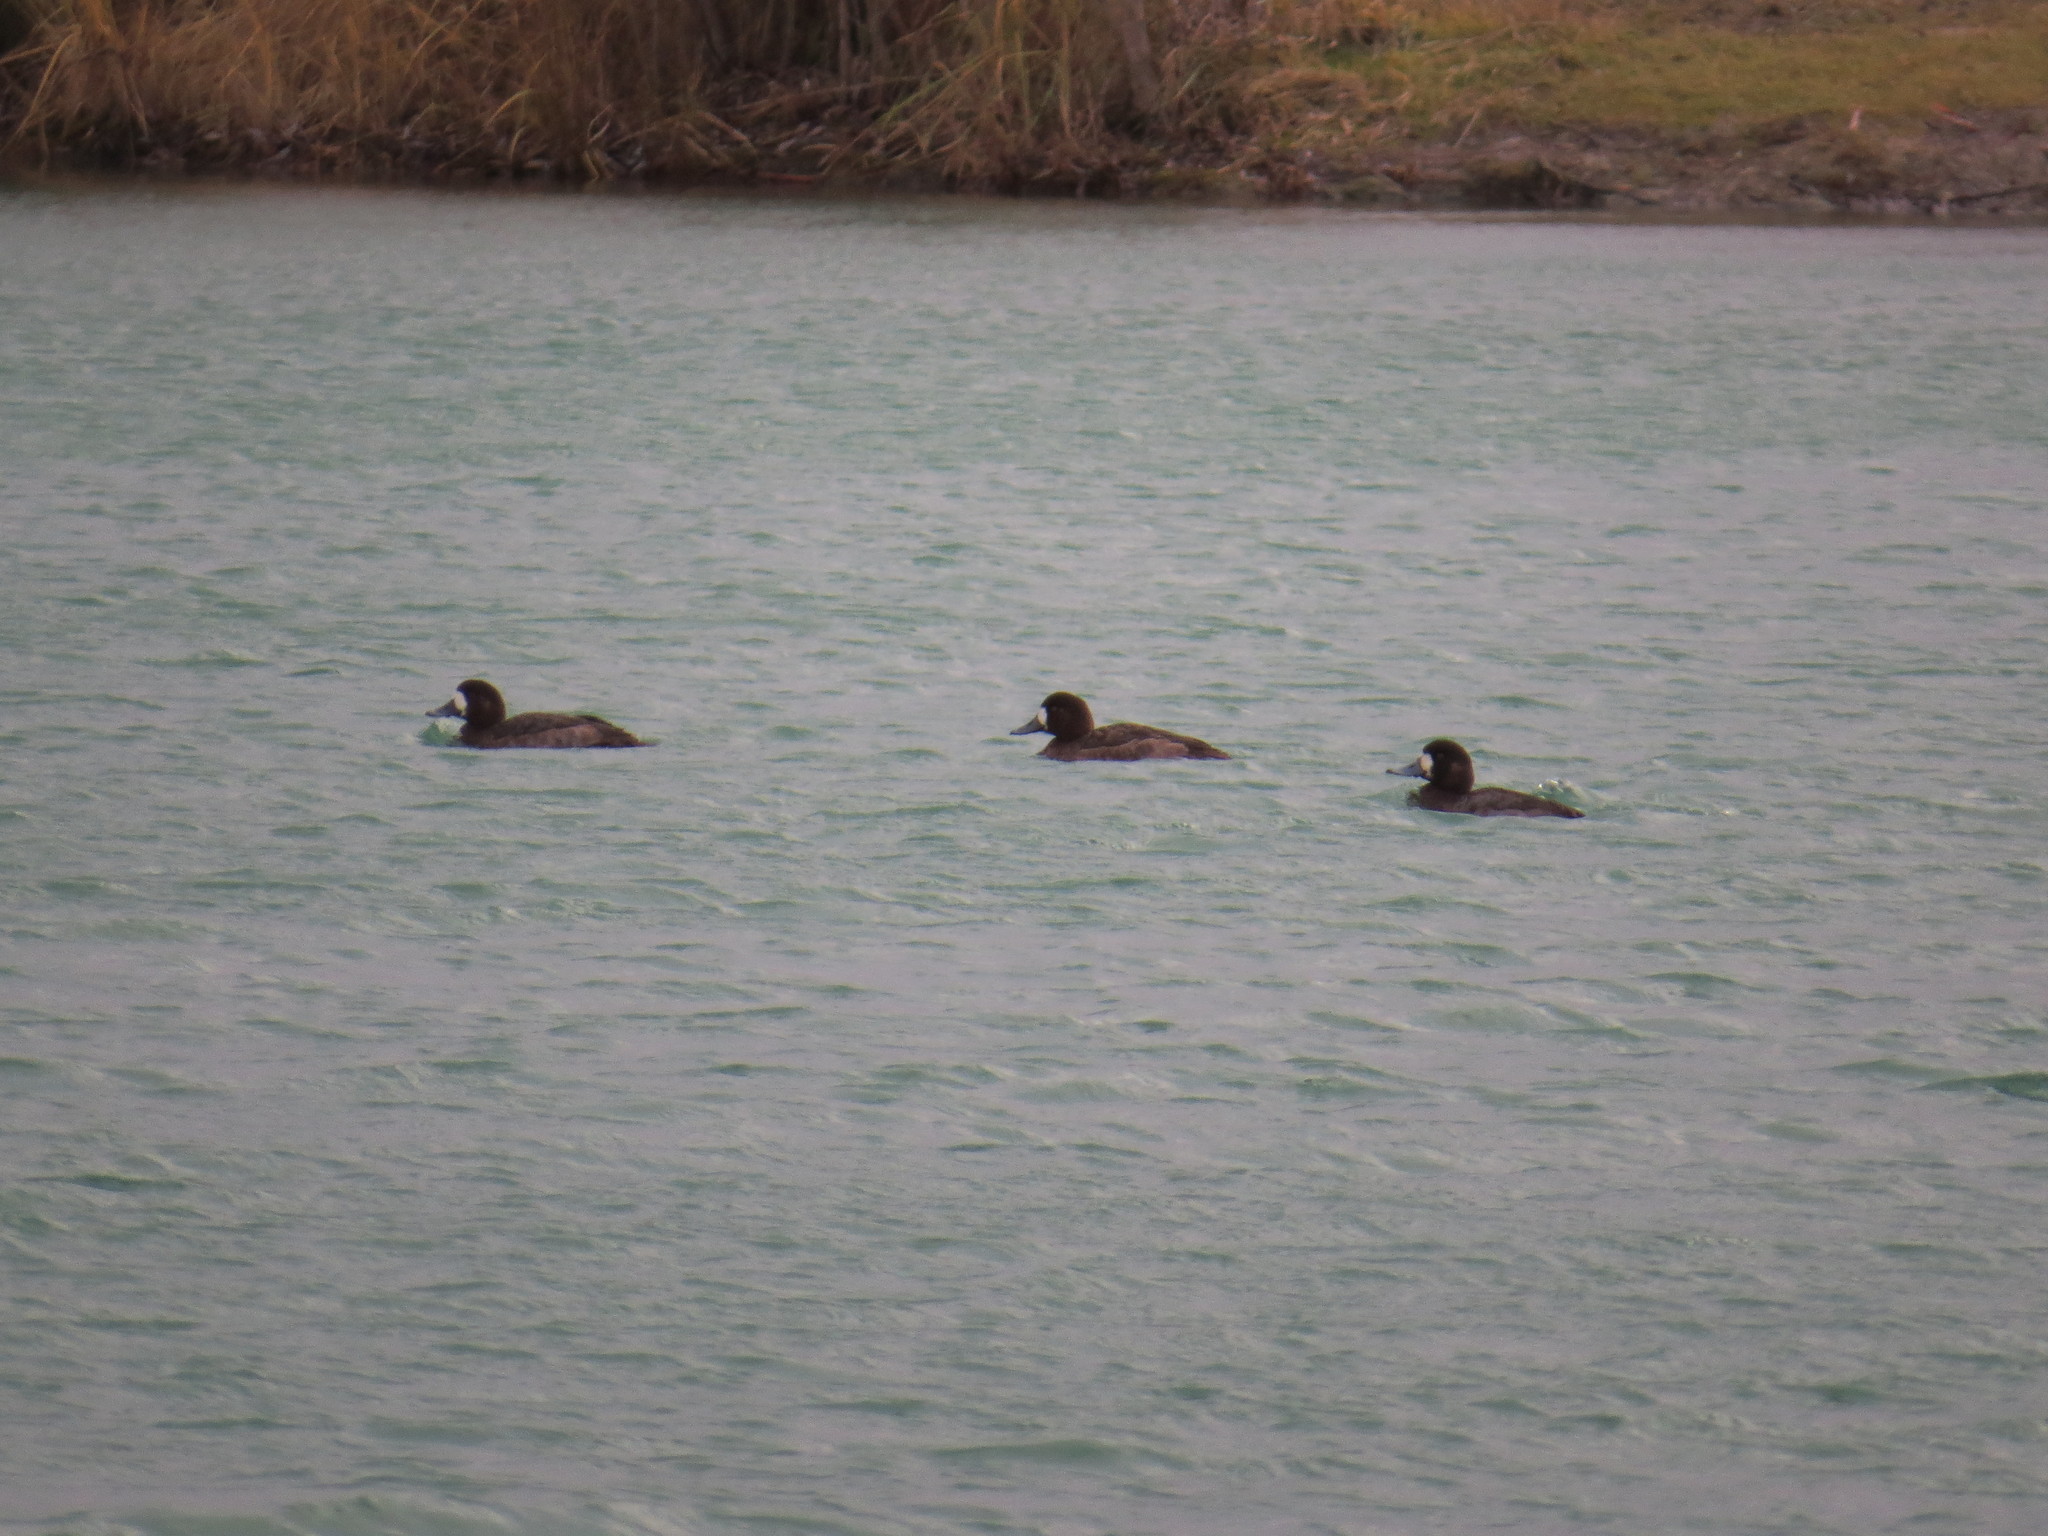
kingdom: Animalia
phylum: Chordata
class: Aves
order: Anseriformes
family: Anatidae
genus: Aythya
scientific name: Aythya marila
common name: Greater scaup
